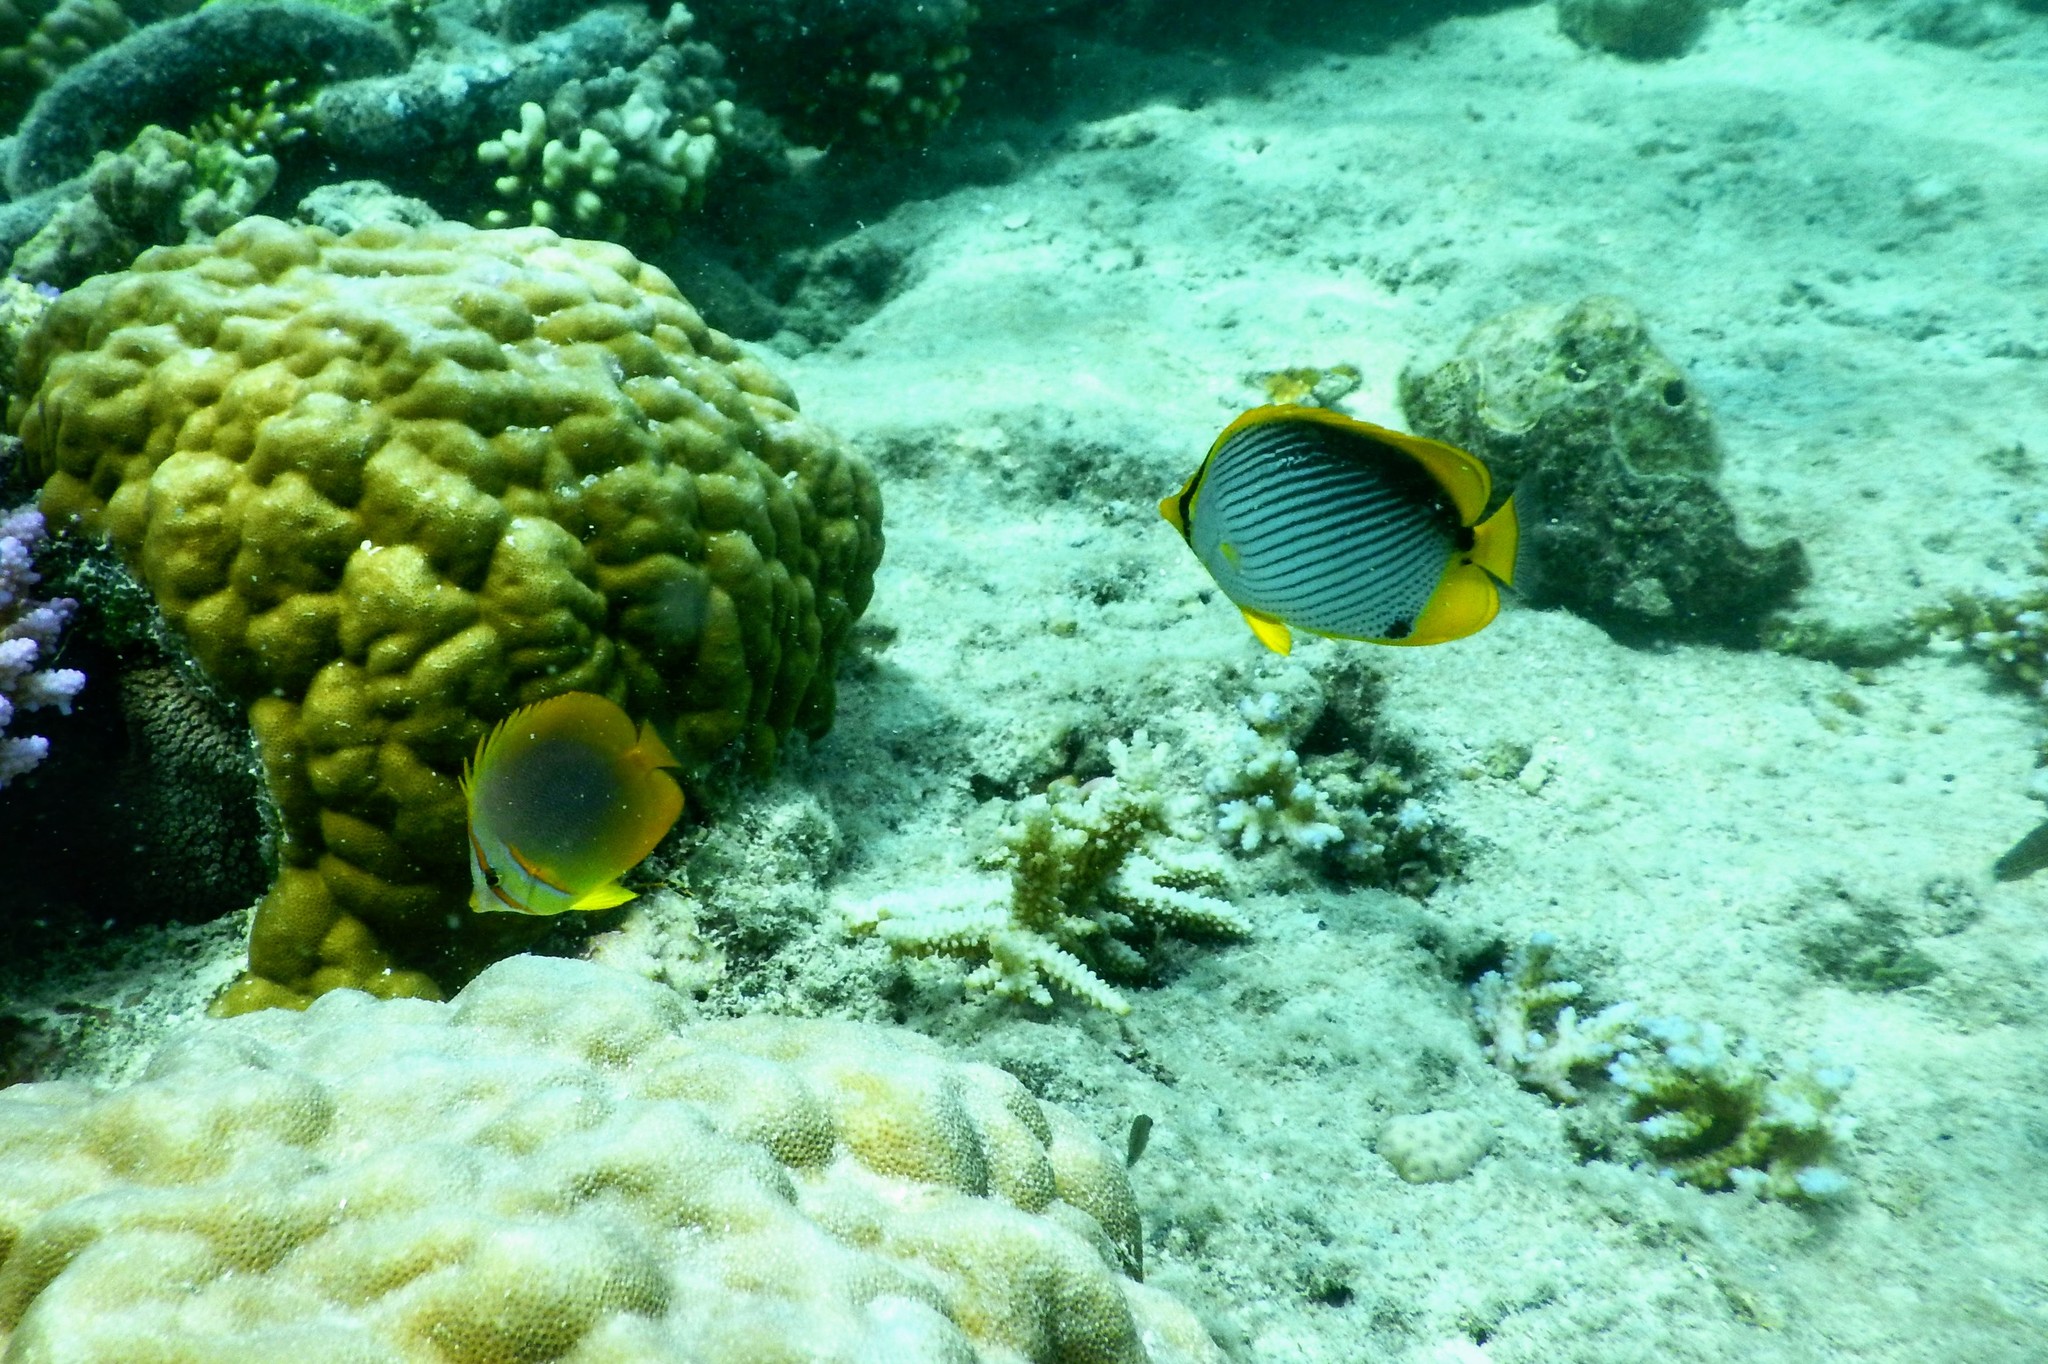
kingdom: Animalia
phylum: Chordata
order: Perciformes
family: Chaetodontidae
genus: Chaetodon
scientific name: Chaetodon melannotus
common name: Blackback butterflyfish
